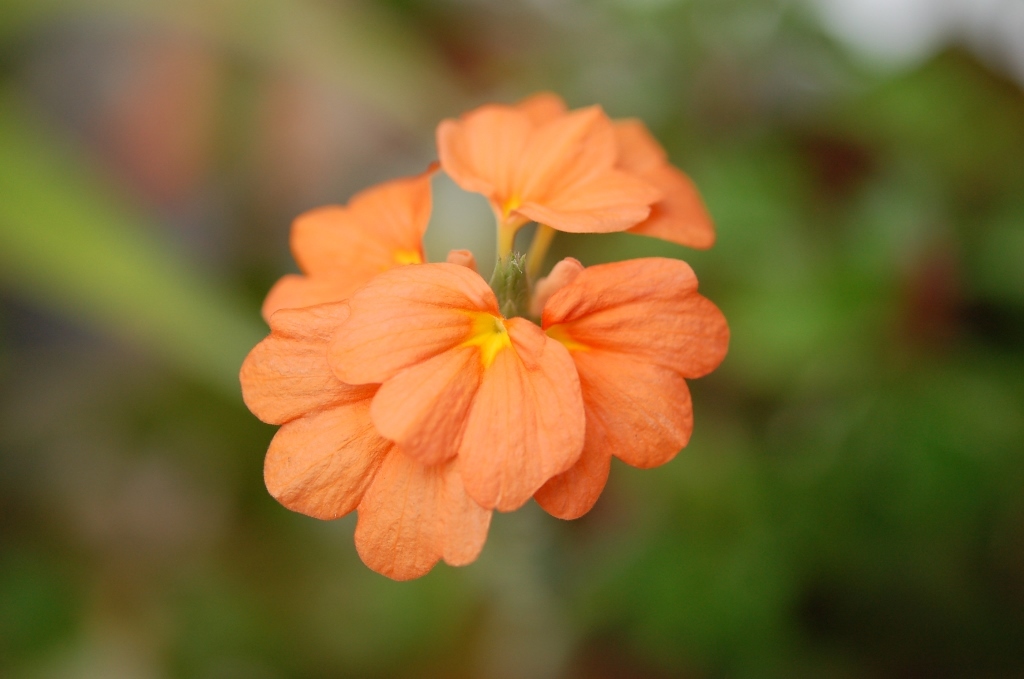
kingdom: Plantae
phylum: Tracheophyta
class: Magnoliopsida
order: Lamiales
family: Acanthaceae
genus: Crossandra
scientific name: Crossandra infundibuliformis
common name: Firecracker-flower
